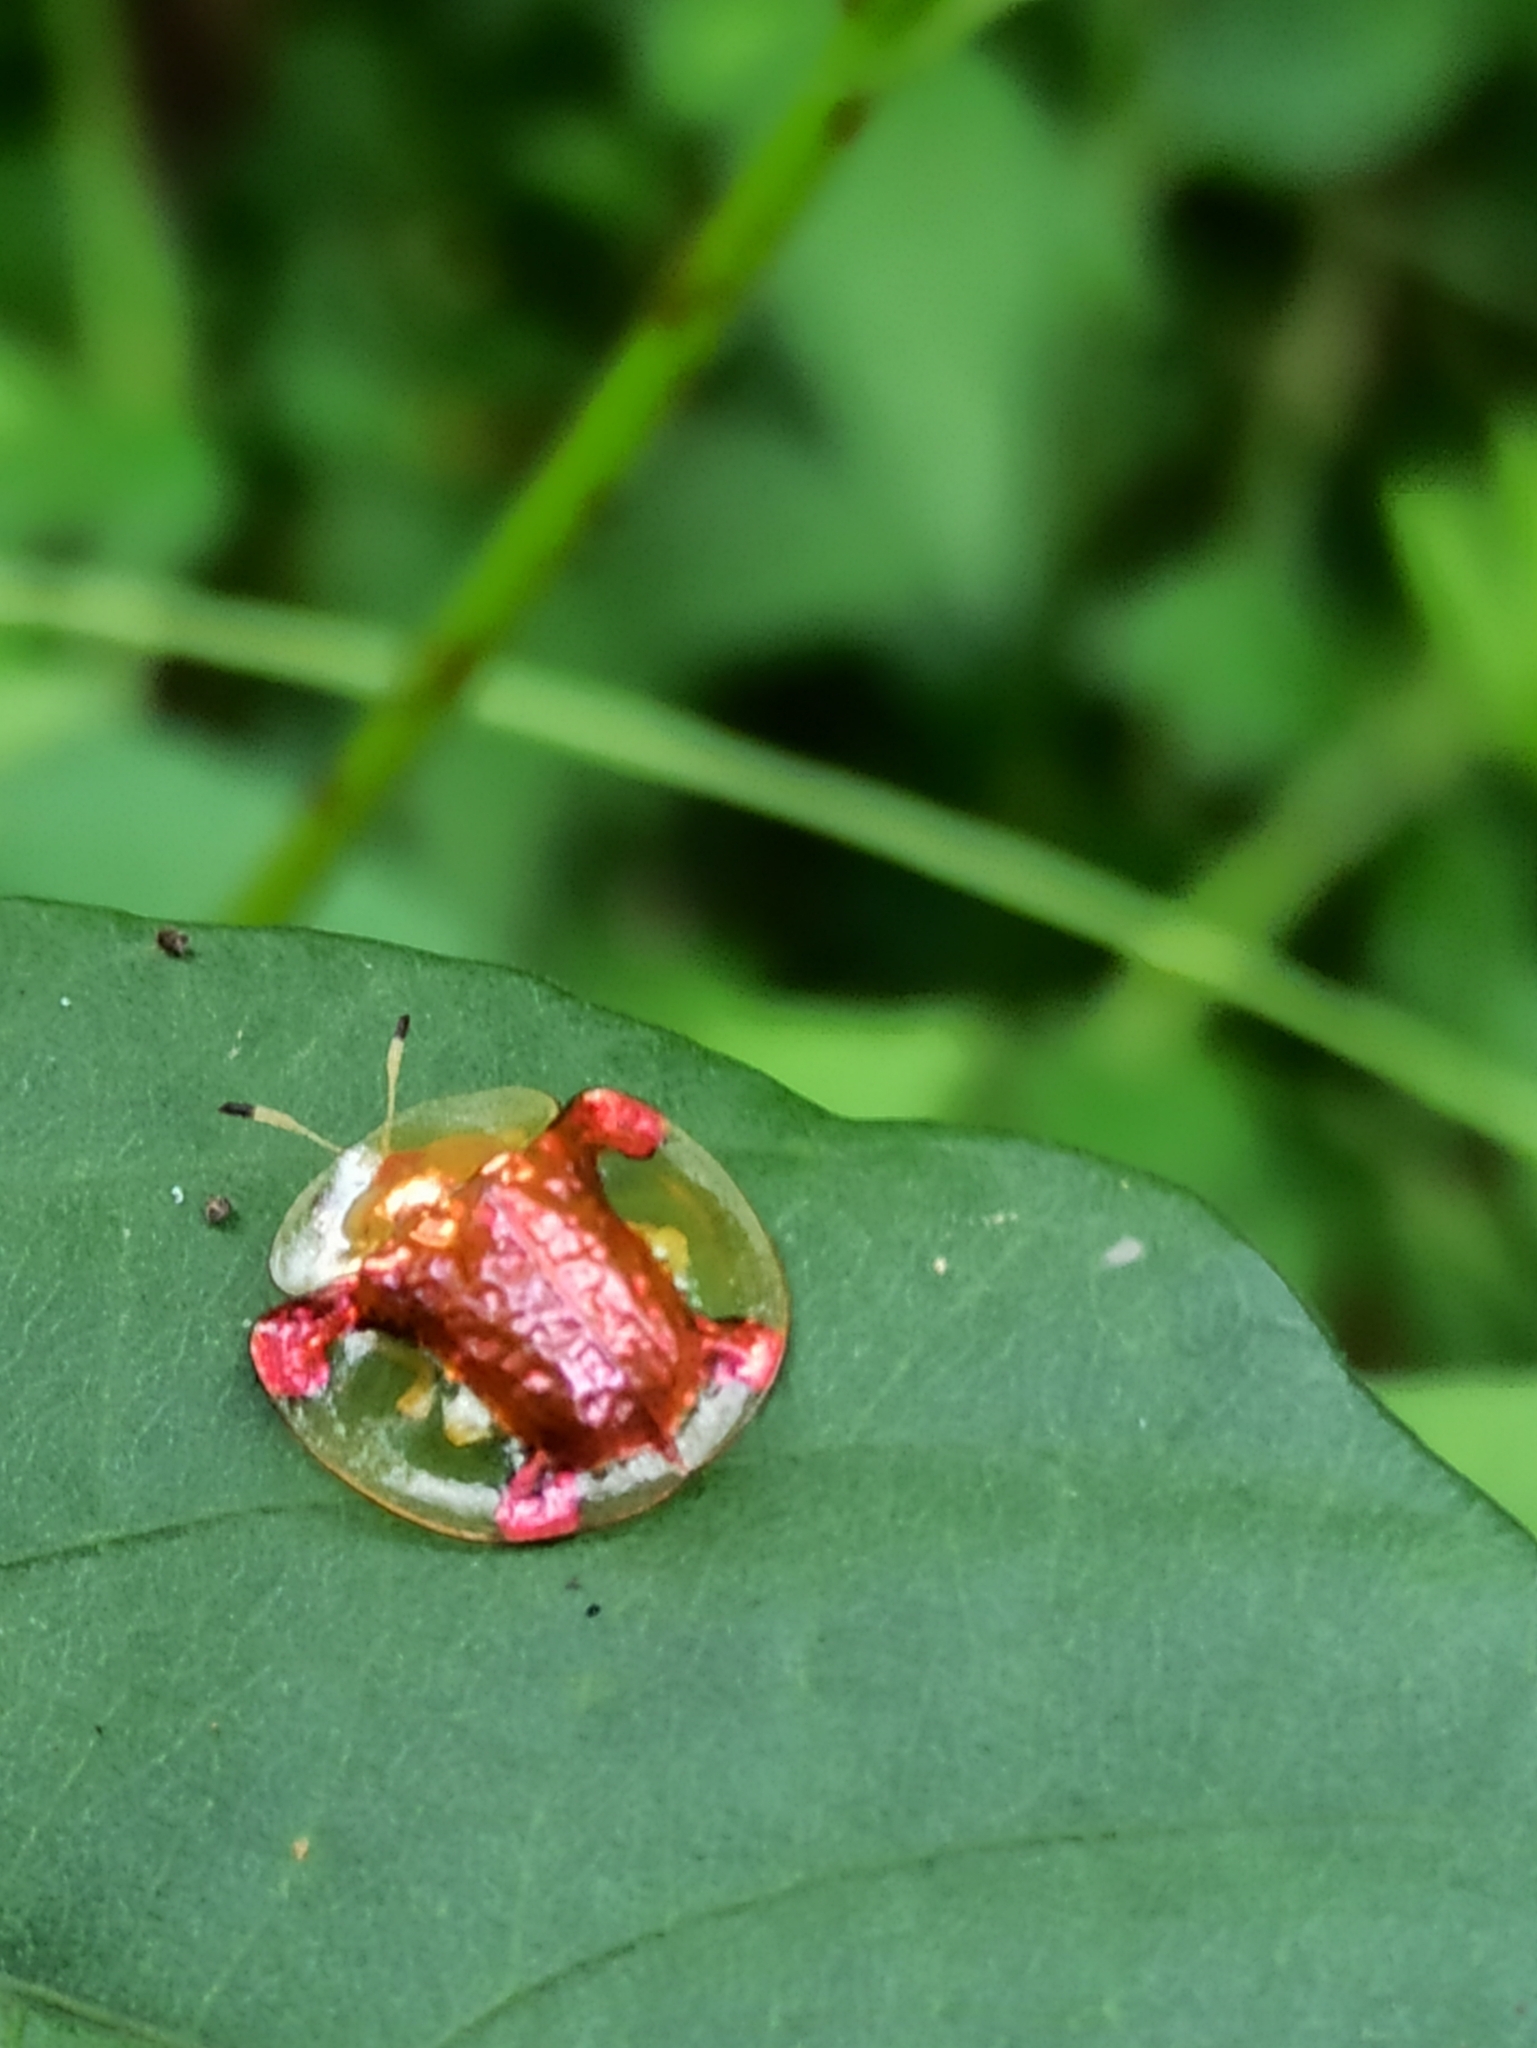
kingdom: Animalia
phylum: Arthropoda
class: Insecta
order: Coleoptera
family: Chrysomelidae
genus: Aspidimorpha
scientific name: Aspidimorpha sanctaecrucis
